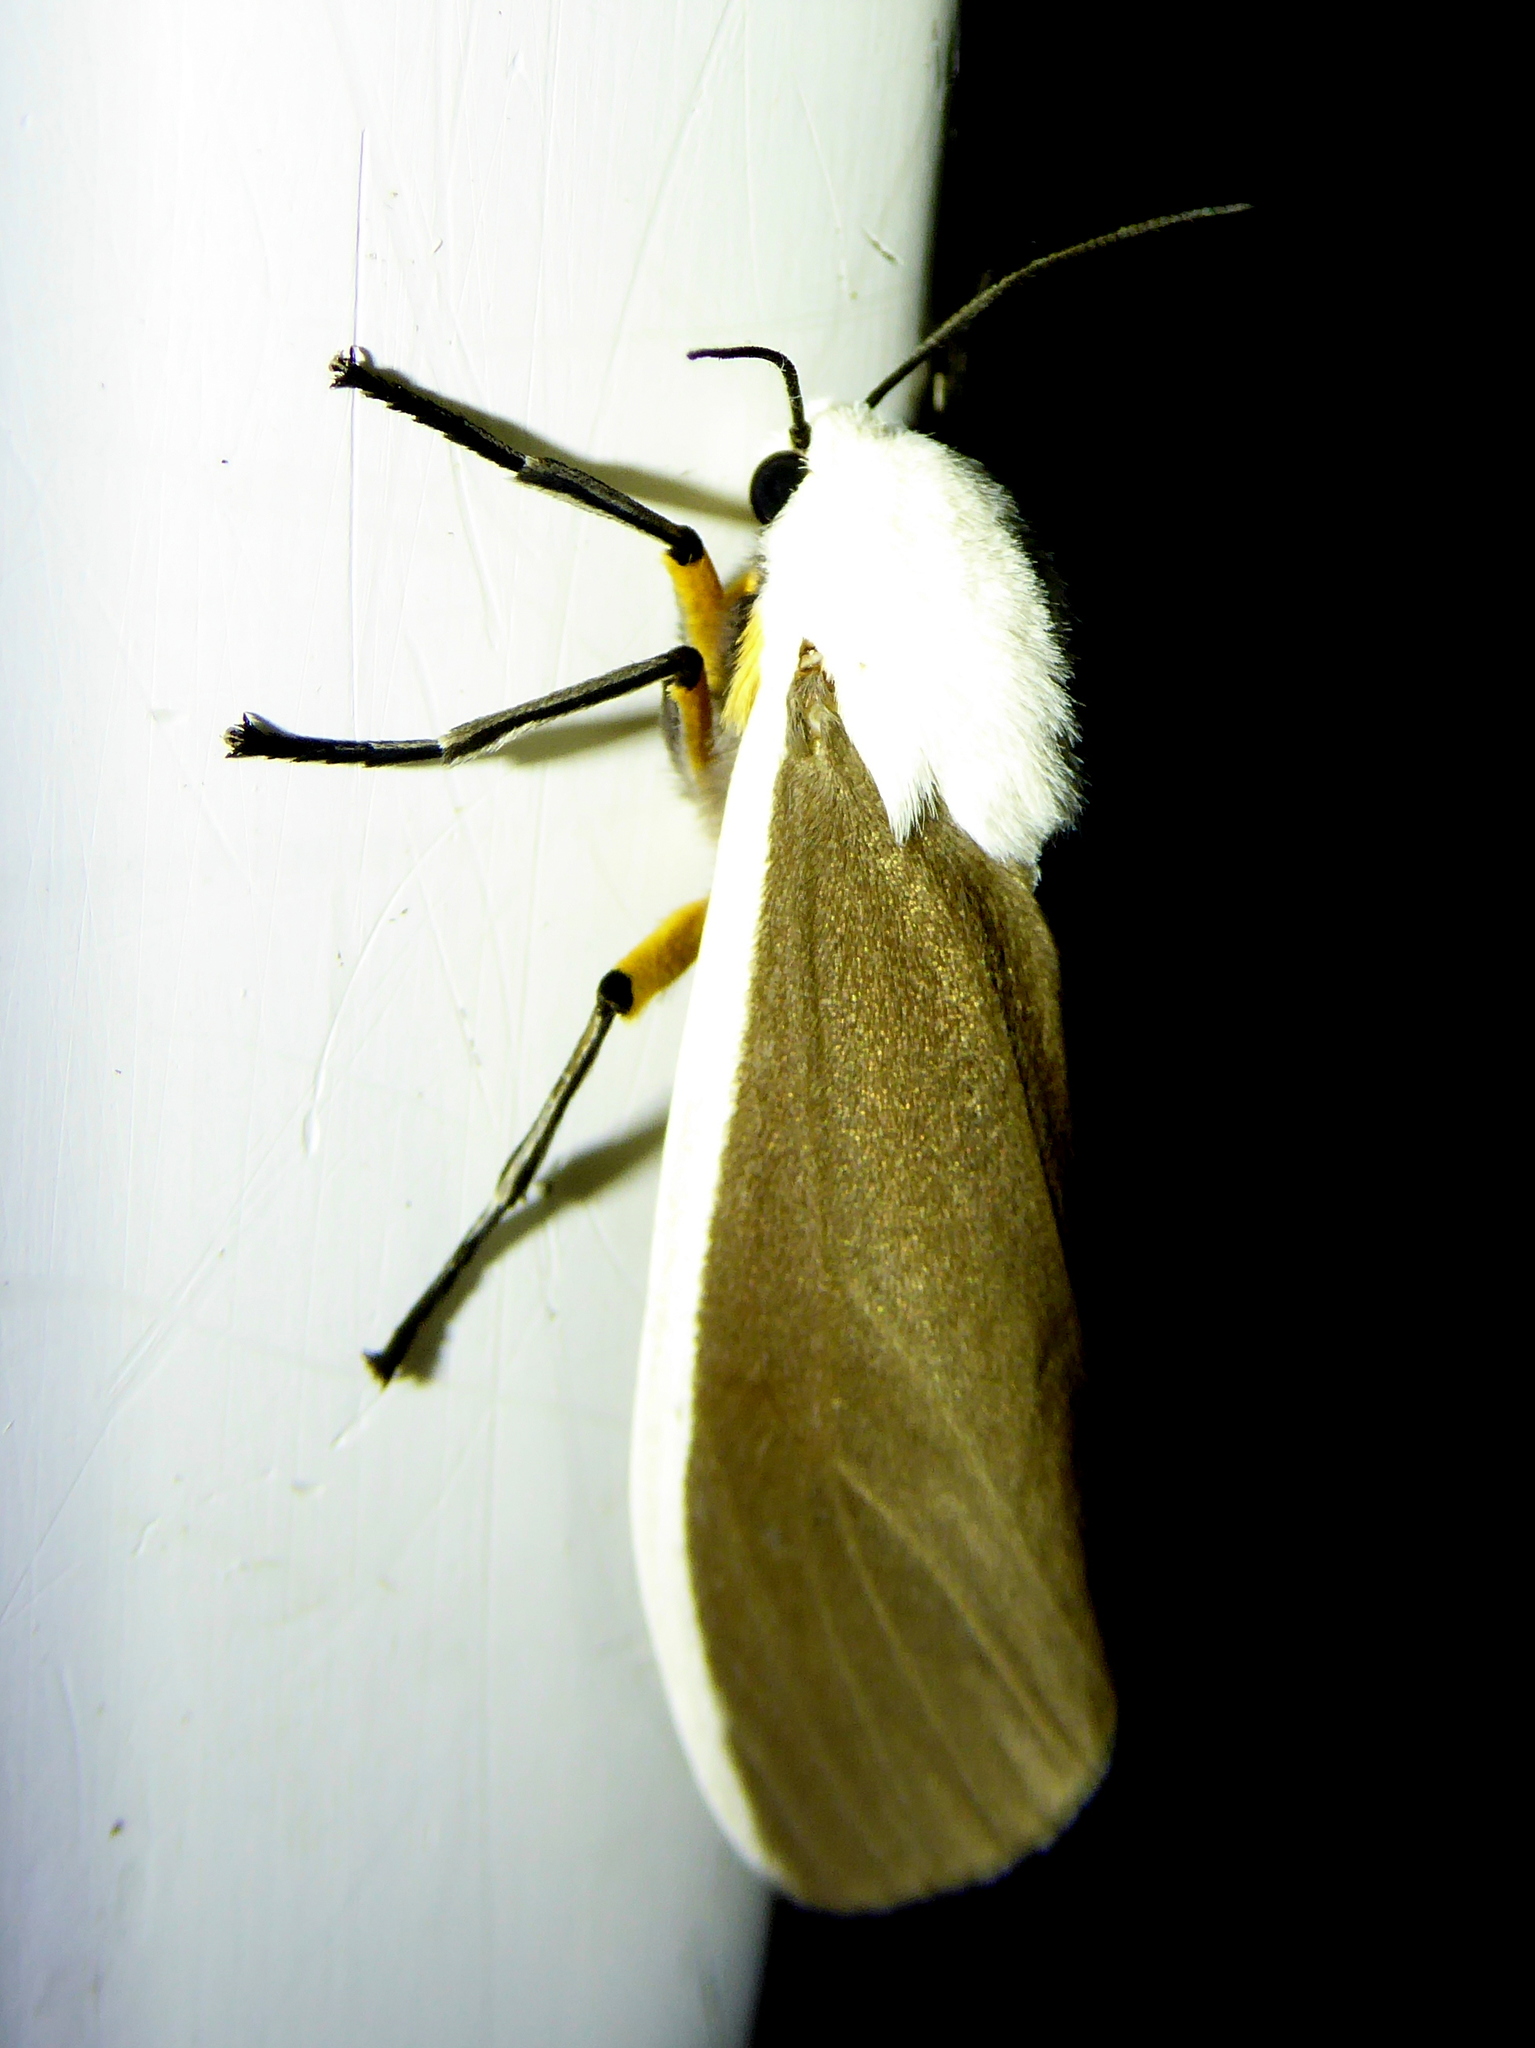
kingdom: Animalia
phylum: Arthropoda
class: Insecta
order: Lepidoptera
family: Erebidae
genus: Creatonotos
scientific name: Creatonotos wilemani
